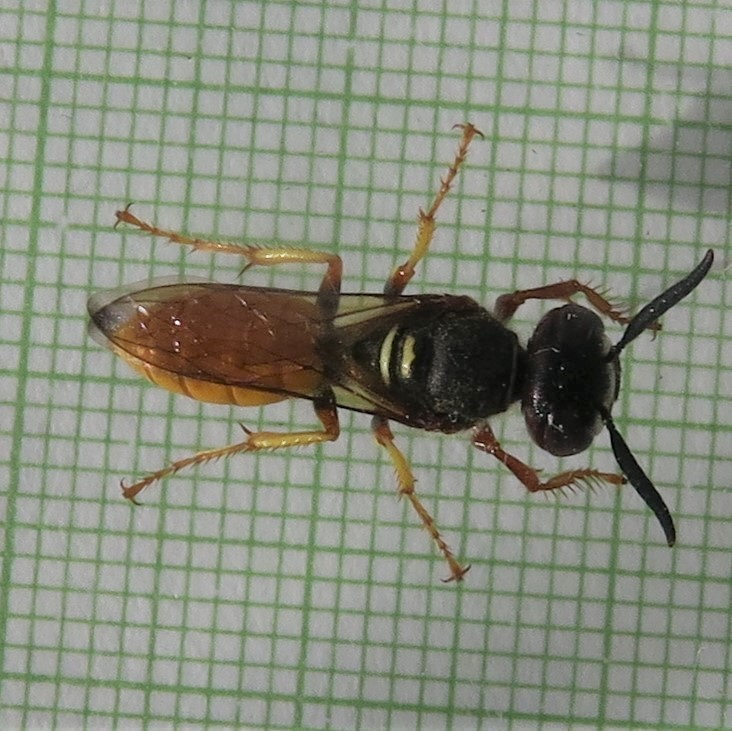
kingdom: Animalia
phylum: Arthropoda
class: Insecta
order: Hymenoptera
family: Crabronidae
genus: Philanthus
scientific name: Philanthus triangulum
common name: Bee wolf
